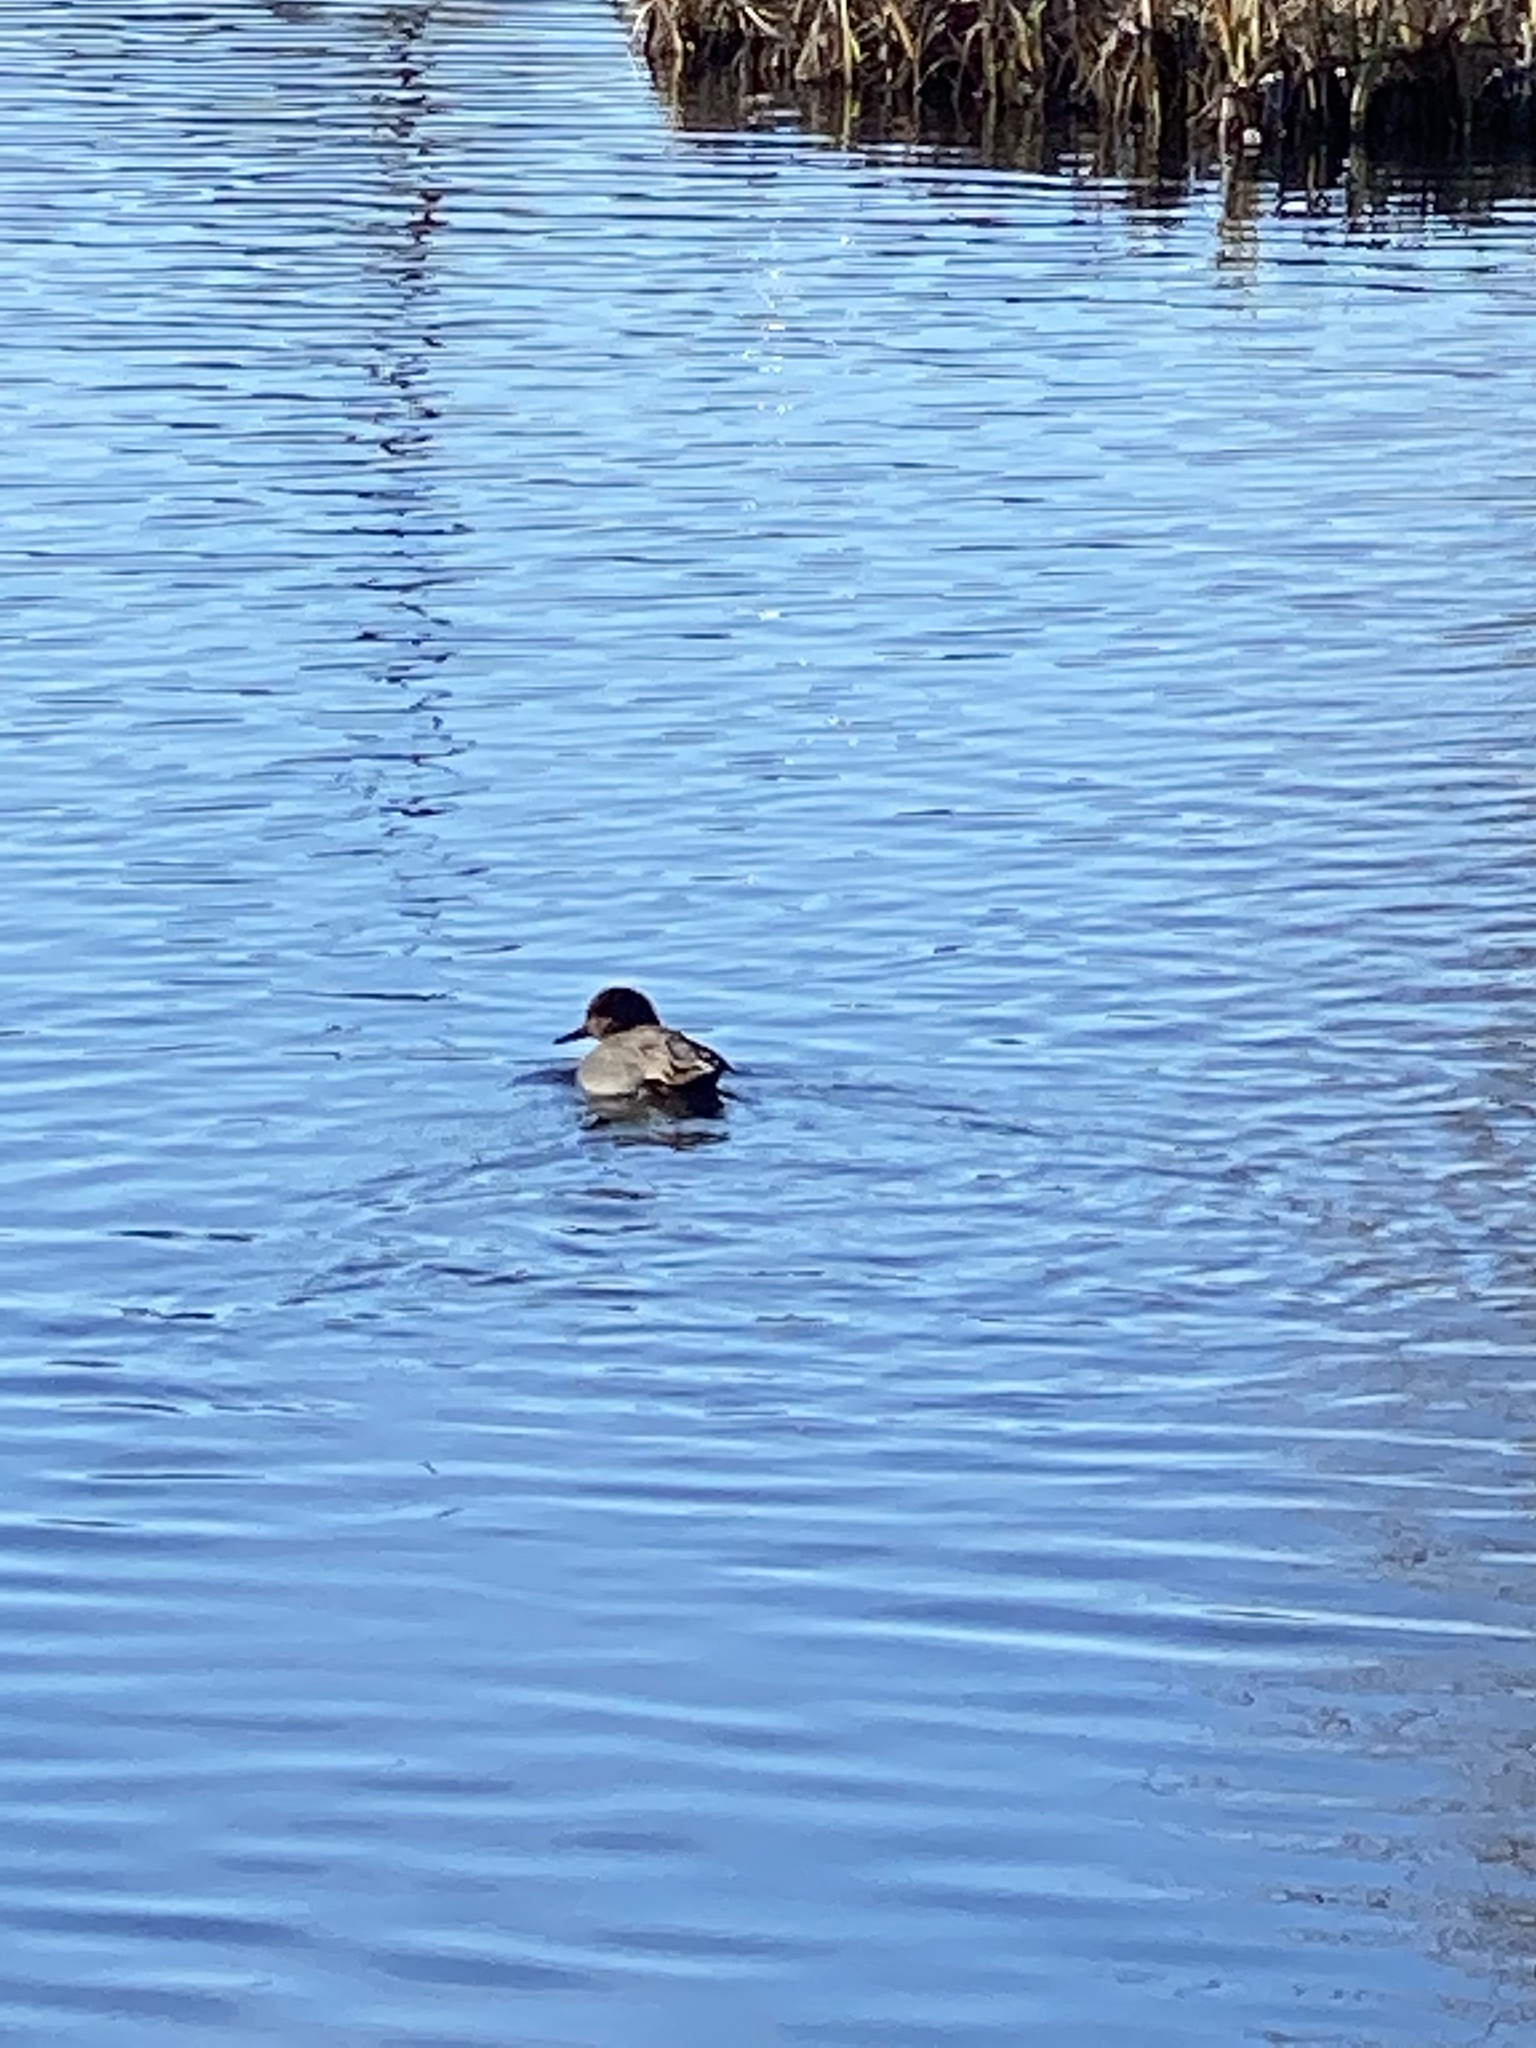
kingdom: Animalia
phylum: Chordata
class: Aves
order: Anseriformes
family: Anatidae
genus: Anas
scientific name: Anas crecca
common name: Eurasian teal
